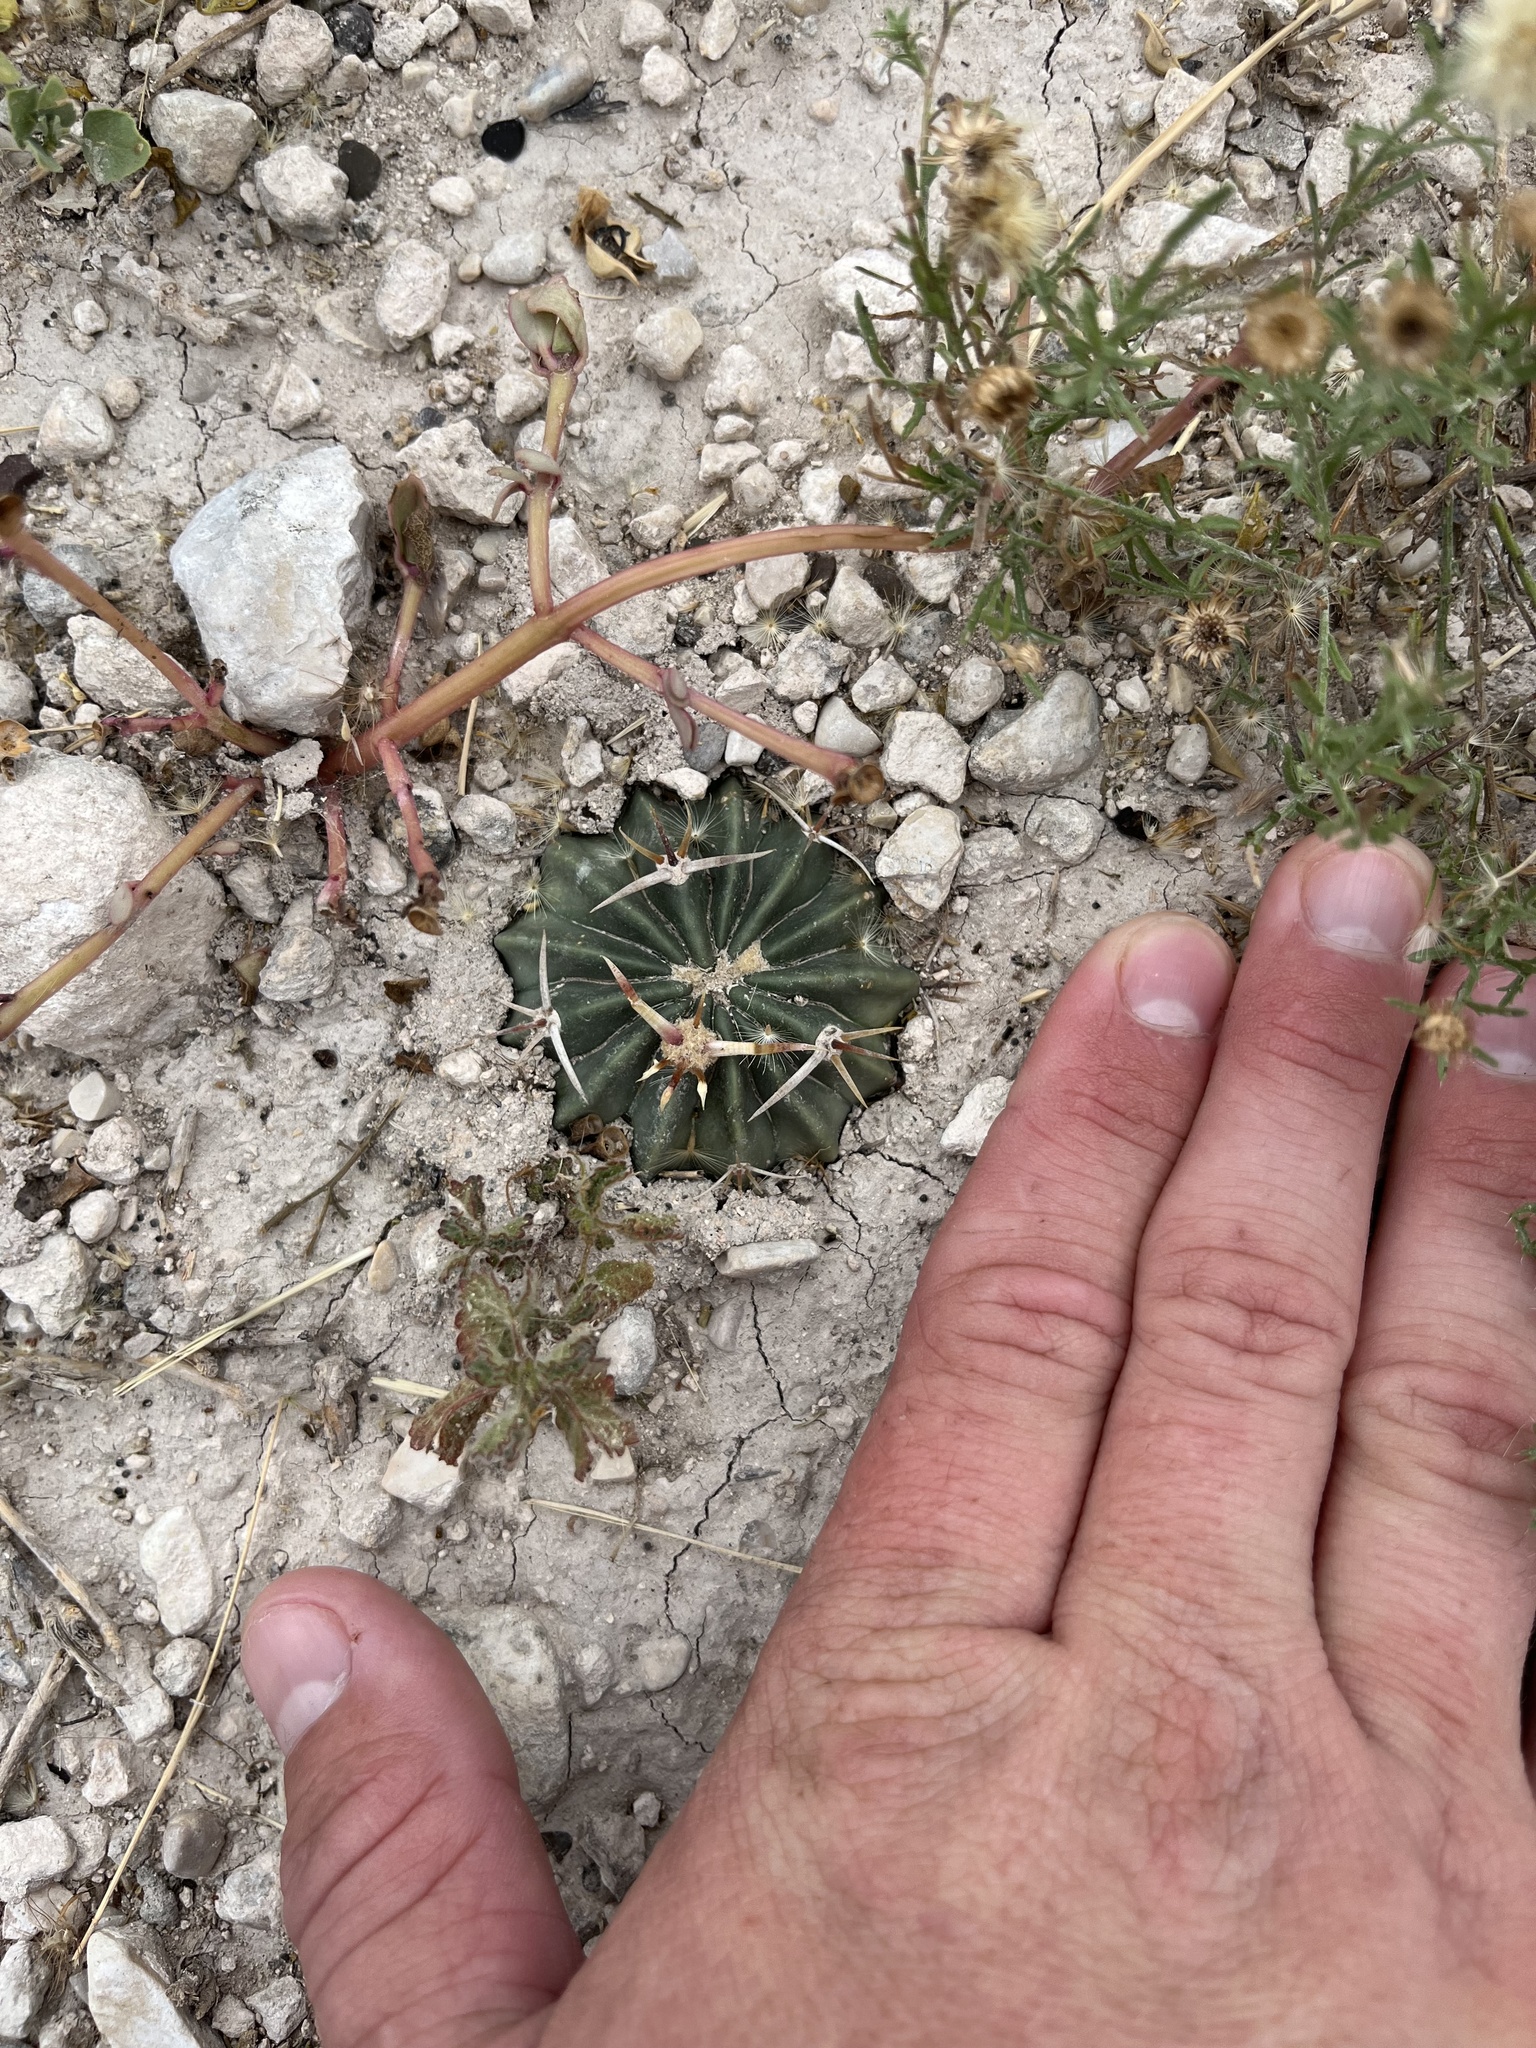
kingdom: Plantae
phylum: Tracheophyta
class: Magnoliopsida
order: Caryophyllales
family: Cactaceae
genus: Echinocactus
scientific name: Echinocactus texensis
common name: Devil's pincushion
